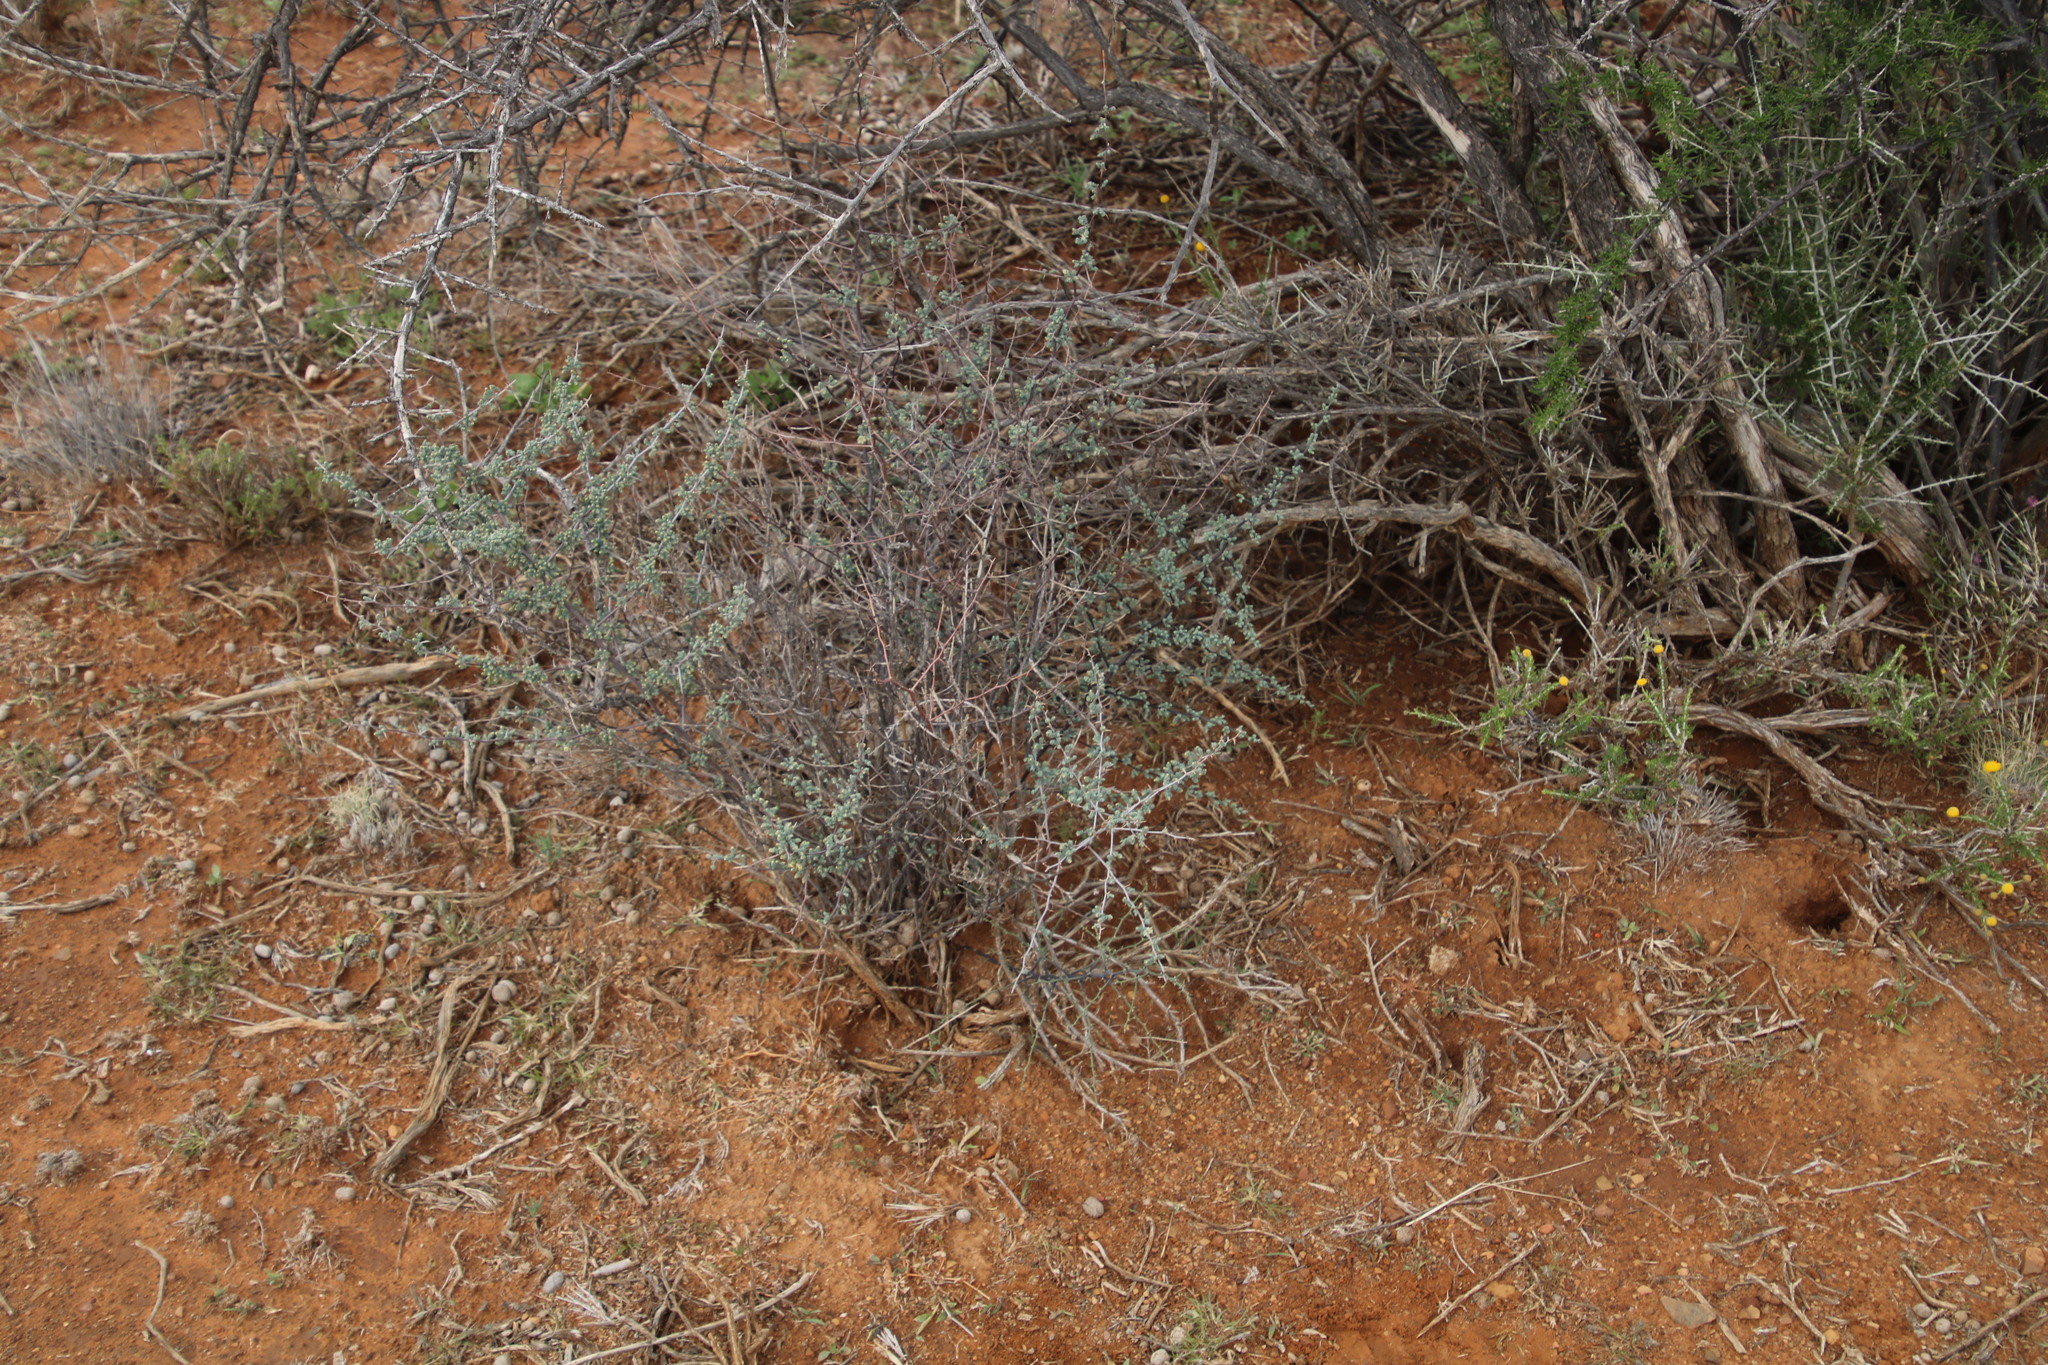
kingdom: Plantae
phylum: Tracheophyta
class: Liliopsida
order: Asparagales
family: Asparagaceae
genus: Asparagus
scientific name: Asparagus capensis
